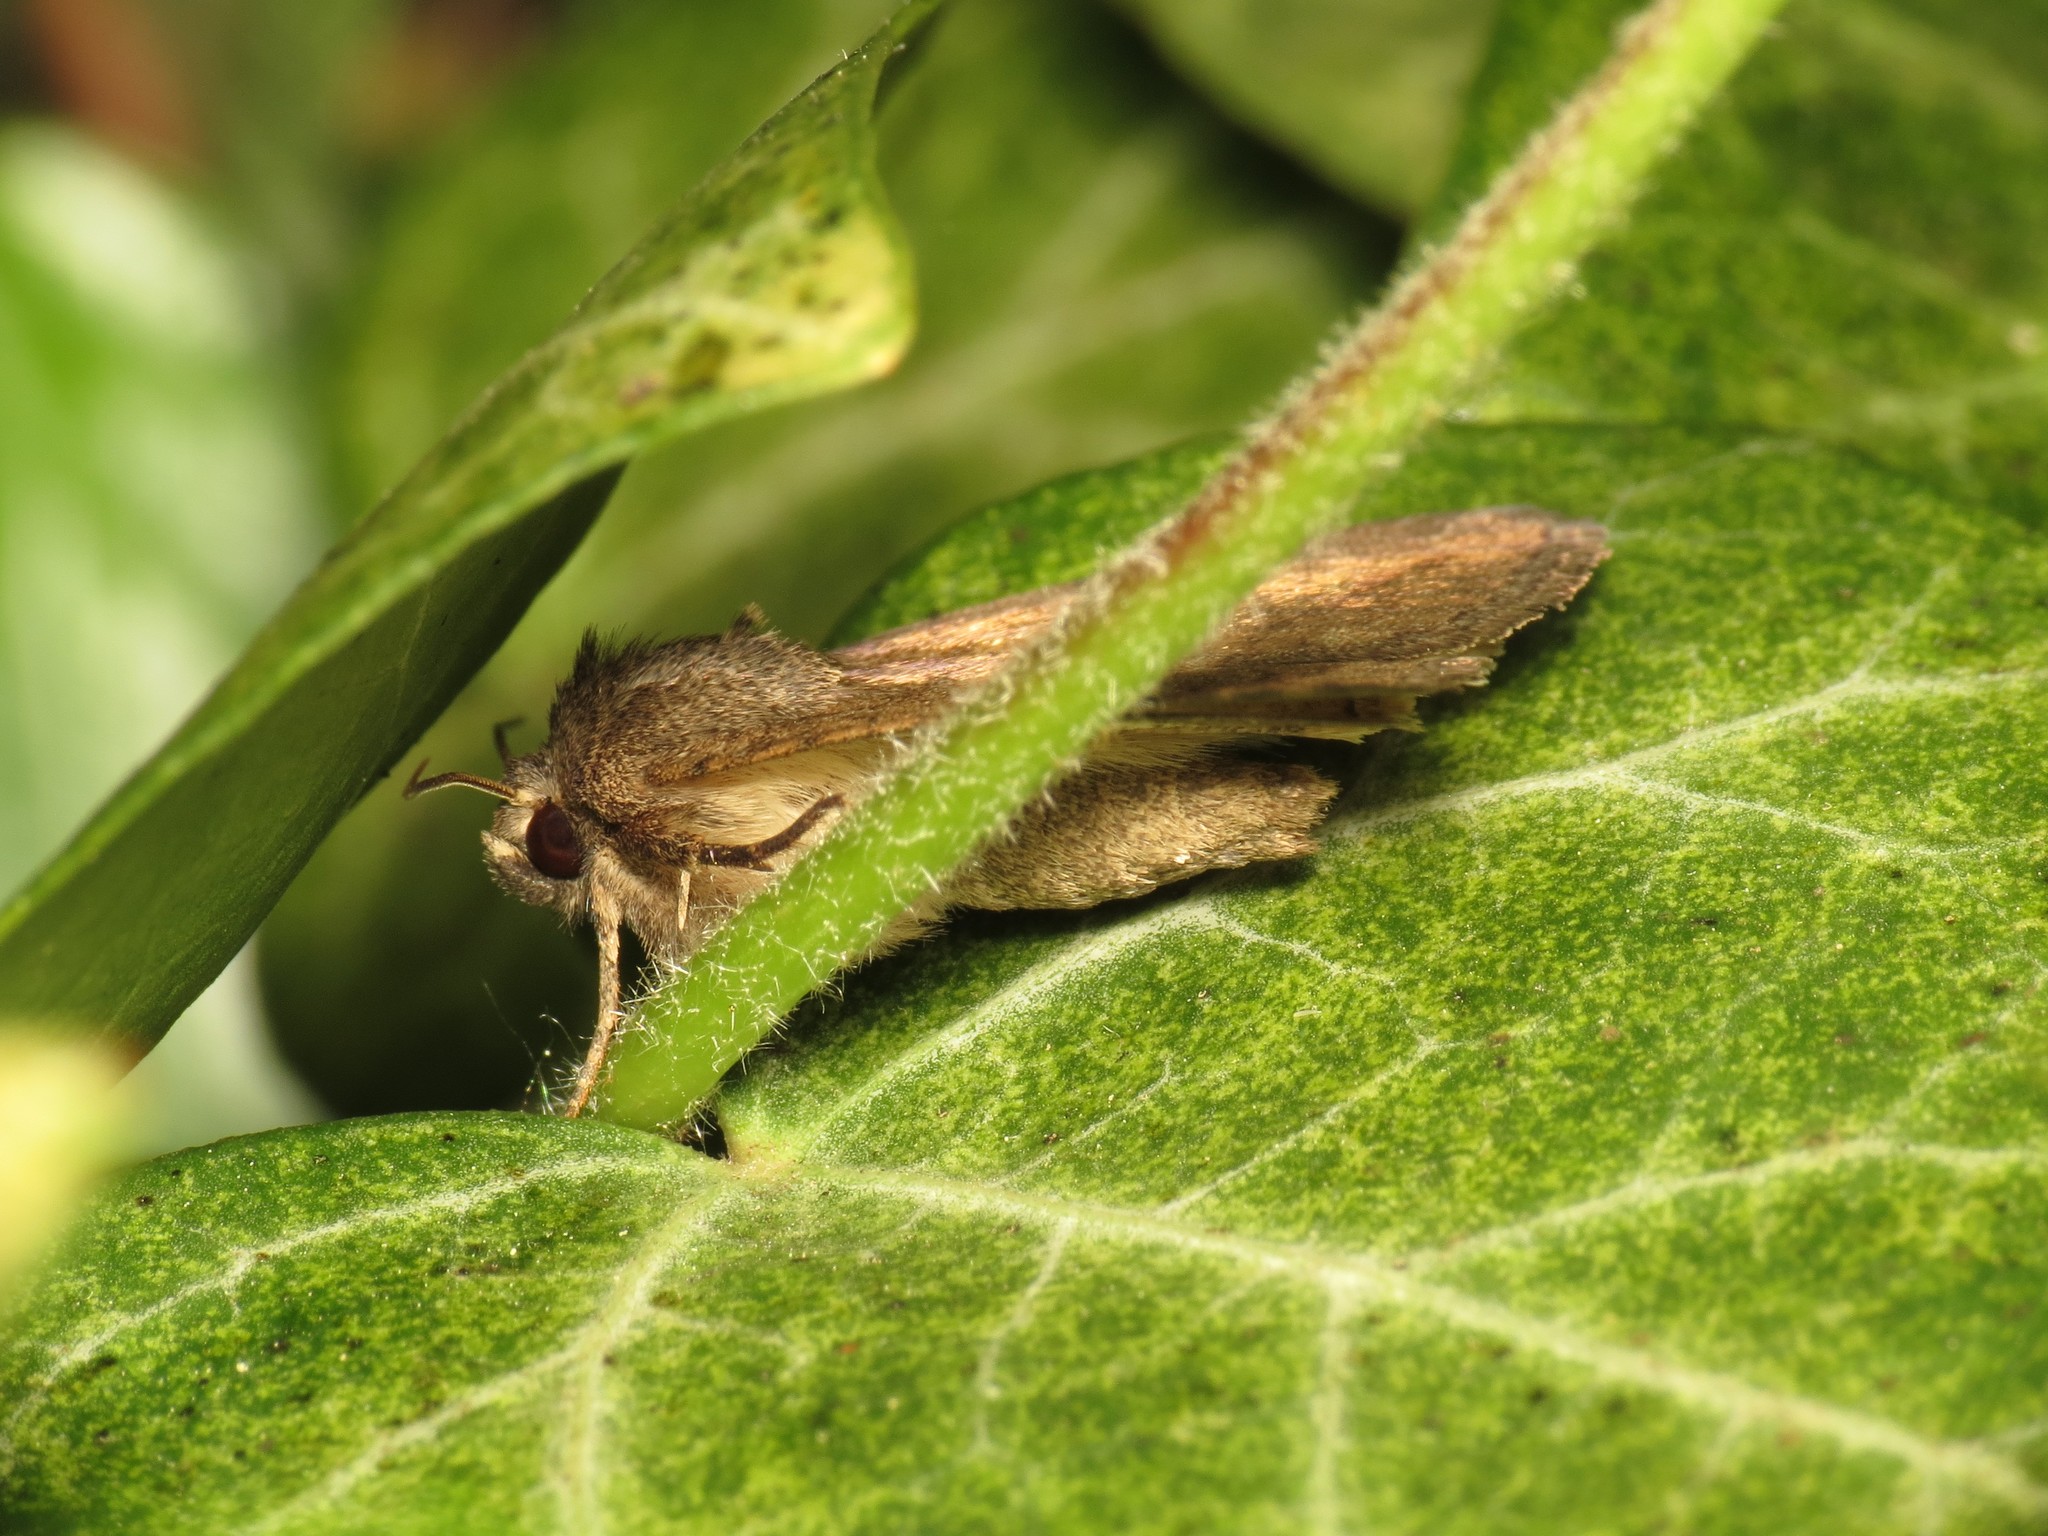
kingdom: Animalia
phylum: Arthropoda
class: Insecta
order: Lepidoptera
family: Noctuidae
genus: Caradrina
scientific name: Caradrina morpheus
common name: Mottled rustic
